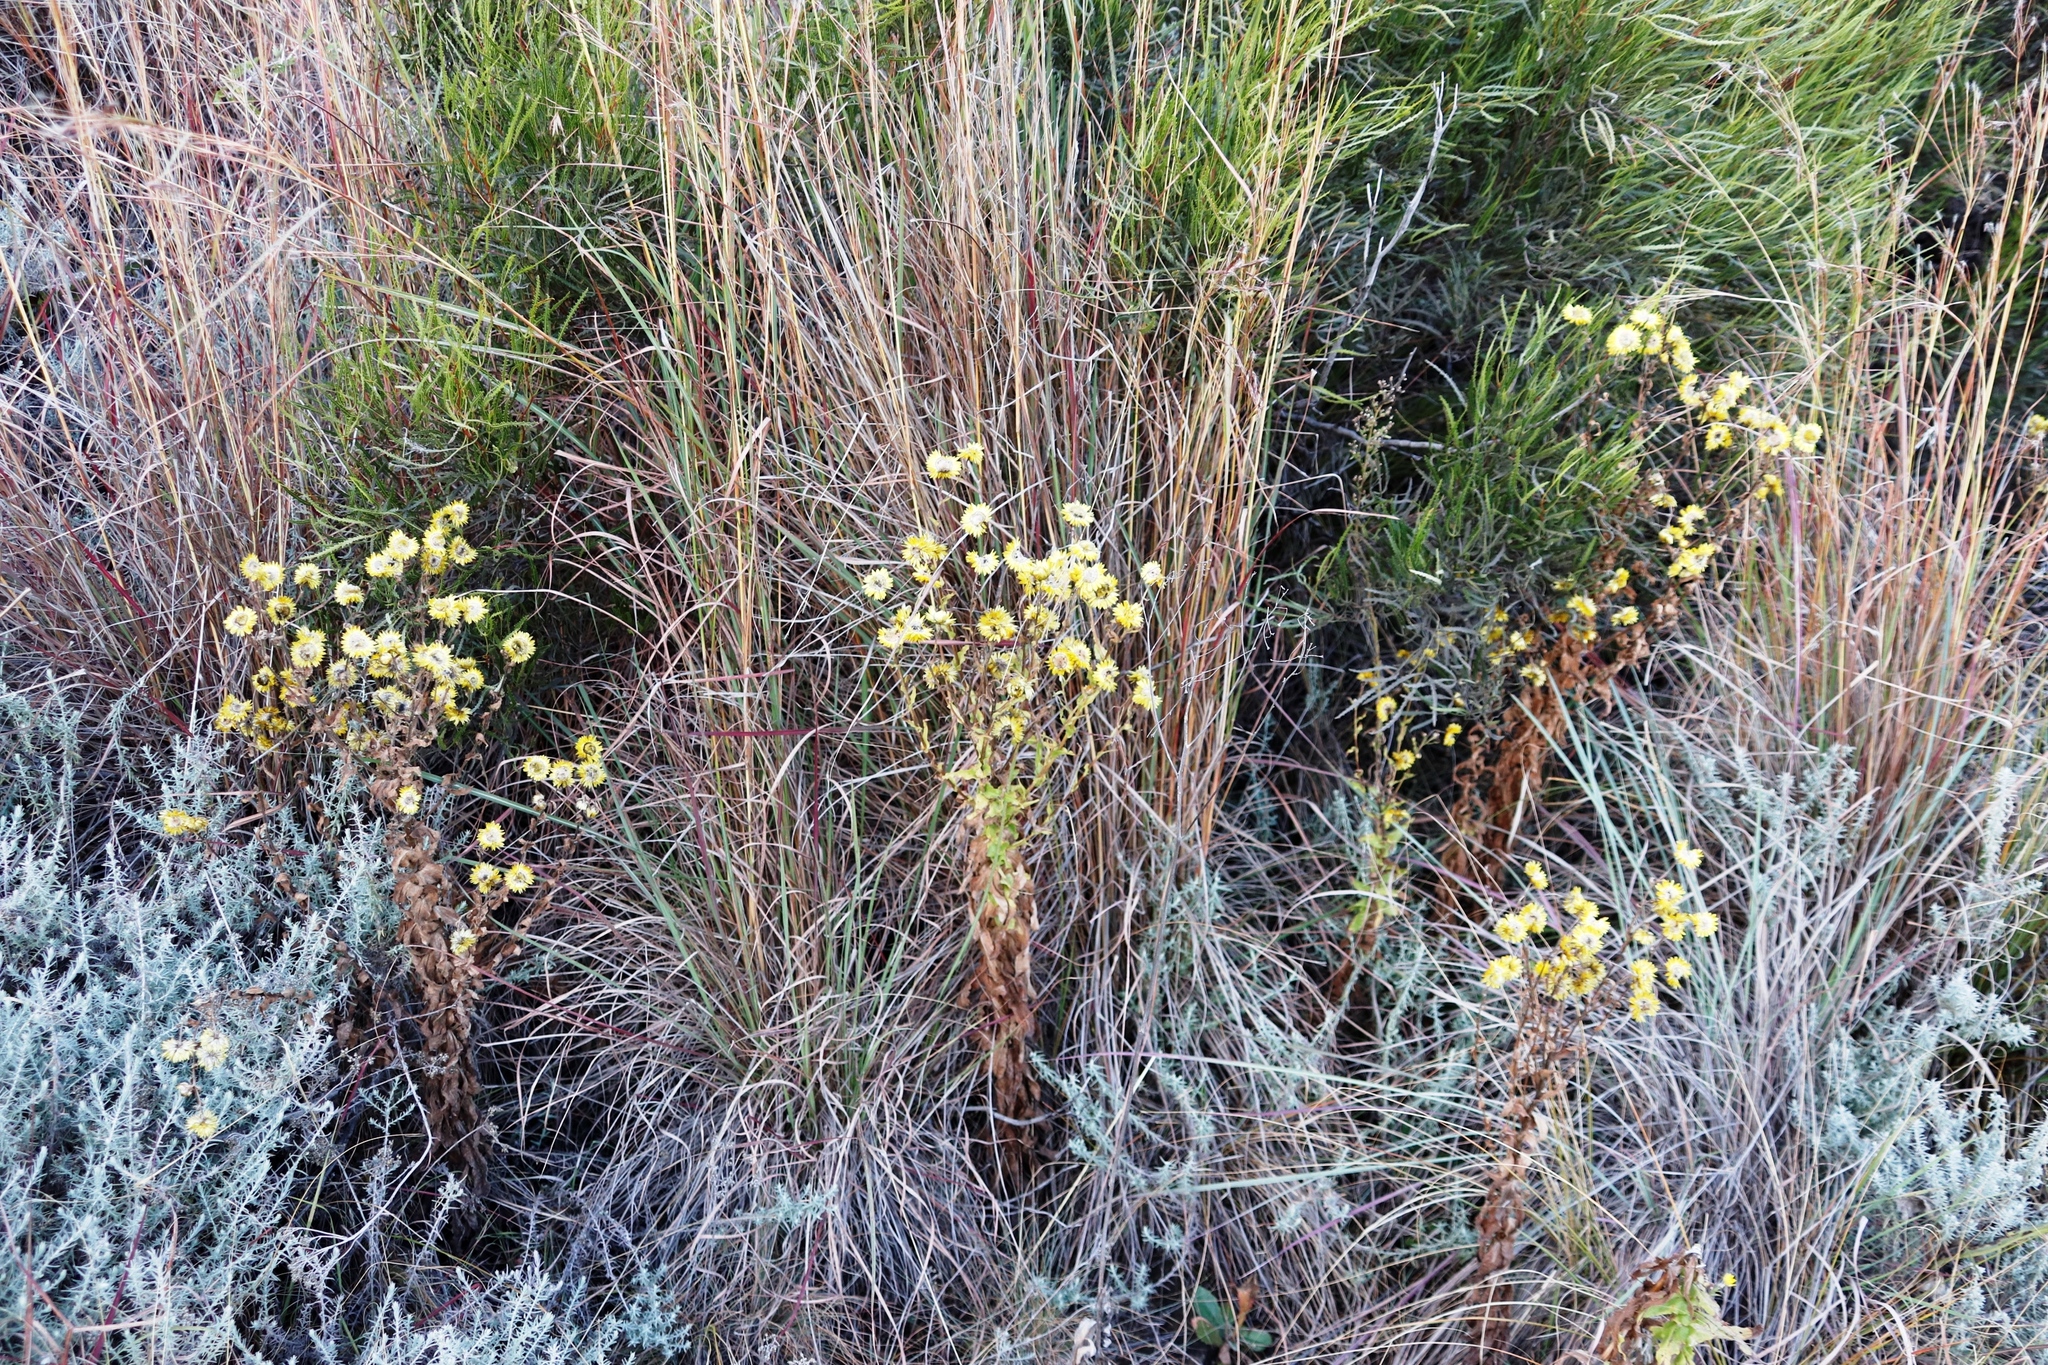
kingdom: Plantae
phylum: Tracheophyta
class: Magnoliopsida
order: Sapindales
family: Anacardiaceae
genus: Searsia
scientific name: Searsia erosa
